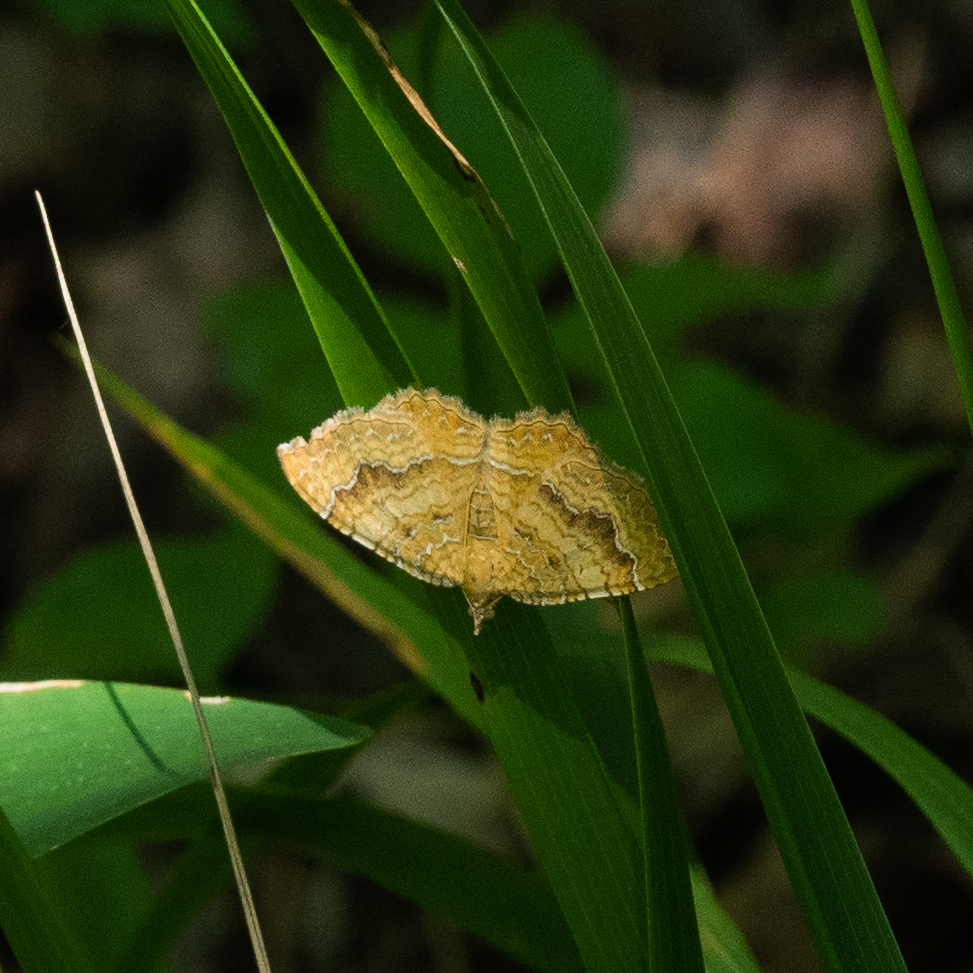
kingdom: Animalia
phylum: Arthropoda
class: Insecta
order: Lepidoptera
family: Geometridae
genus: Camptogramma
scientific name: Camptogramma bilineata
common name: Yellow shell
